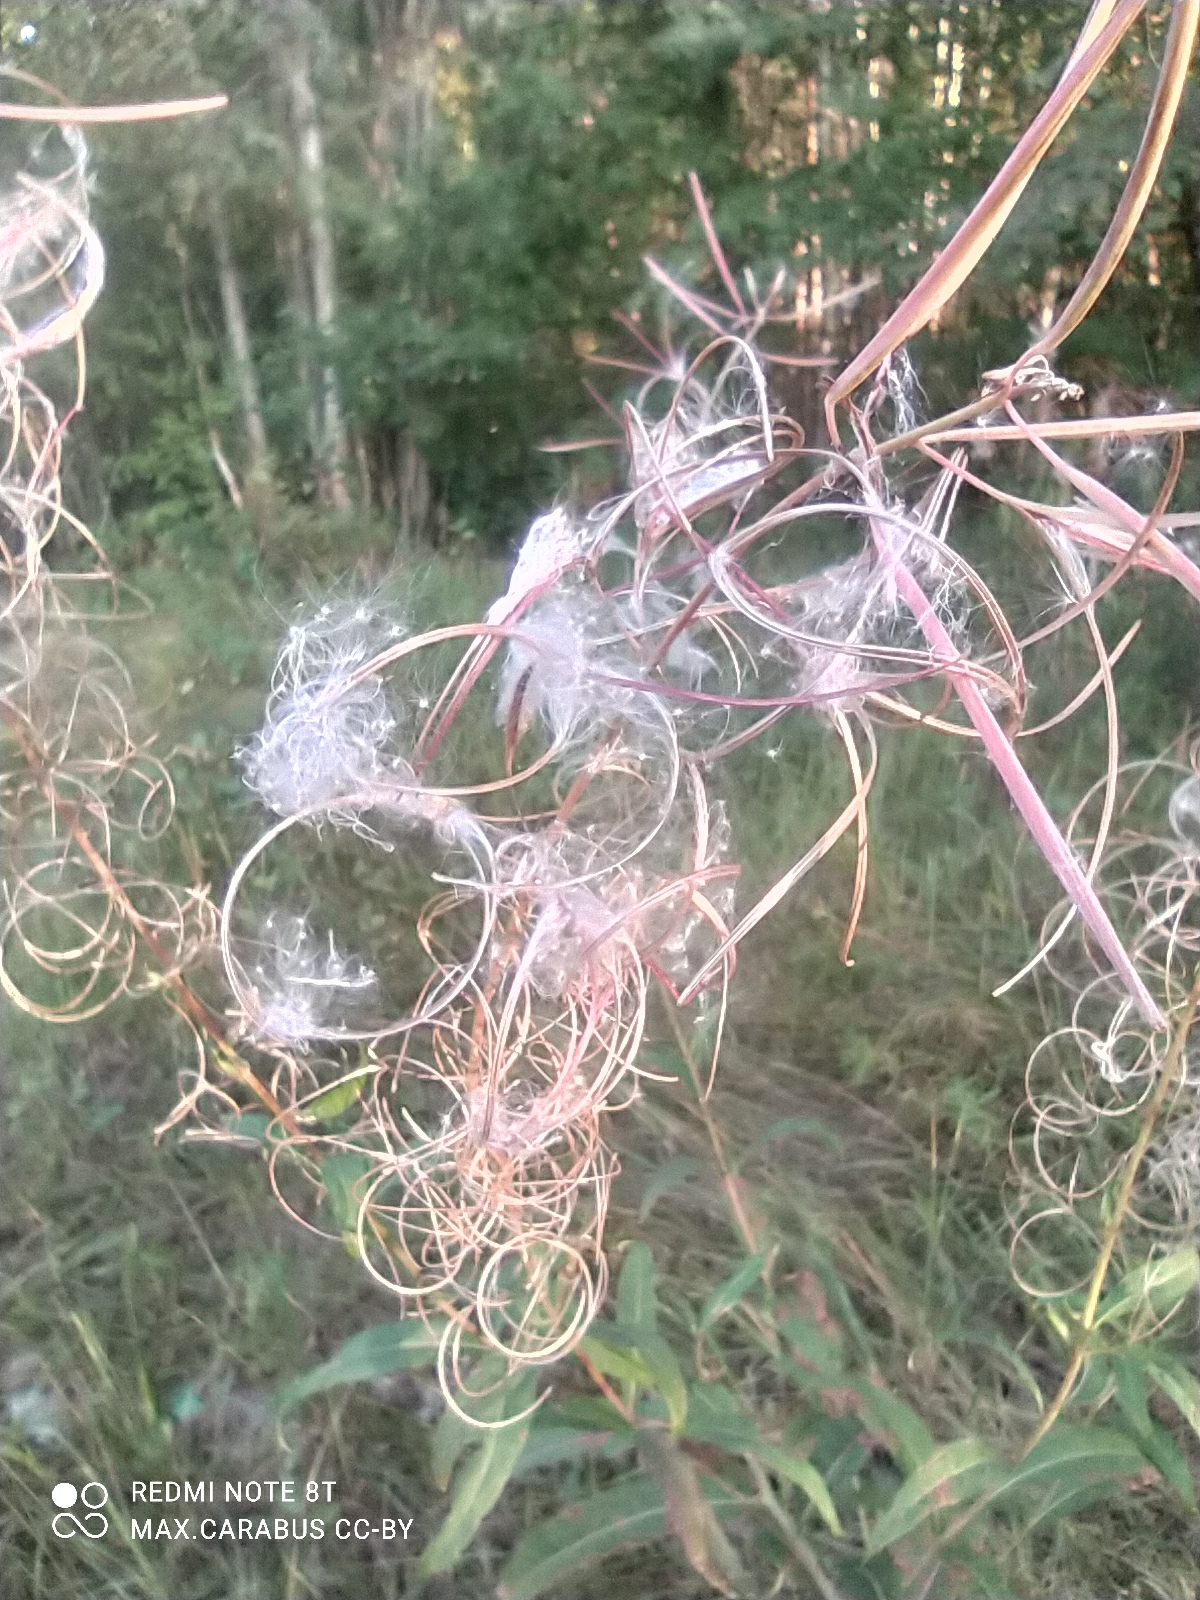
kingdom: Plantae
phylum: Tracheophyta
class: Magnoliopsida
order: Myrtales
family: Onagraceae
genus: Chamaenerion
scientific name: Chamaenerion angustifolium
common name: Fireweed
